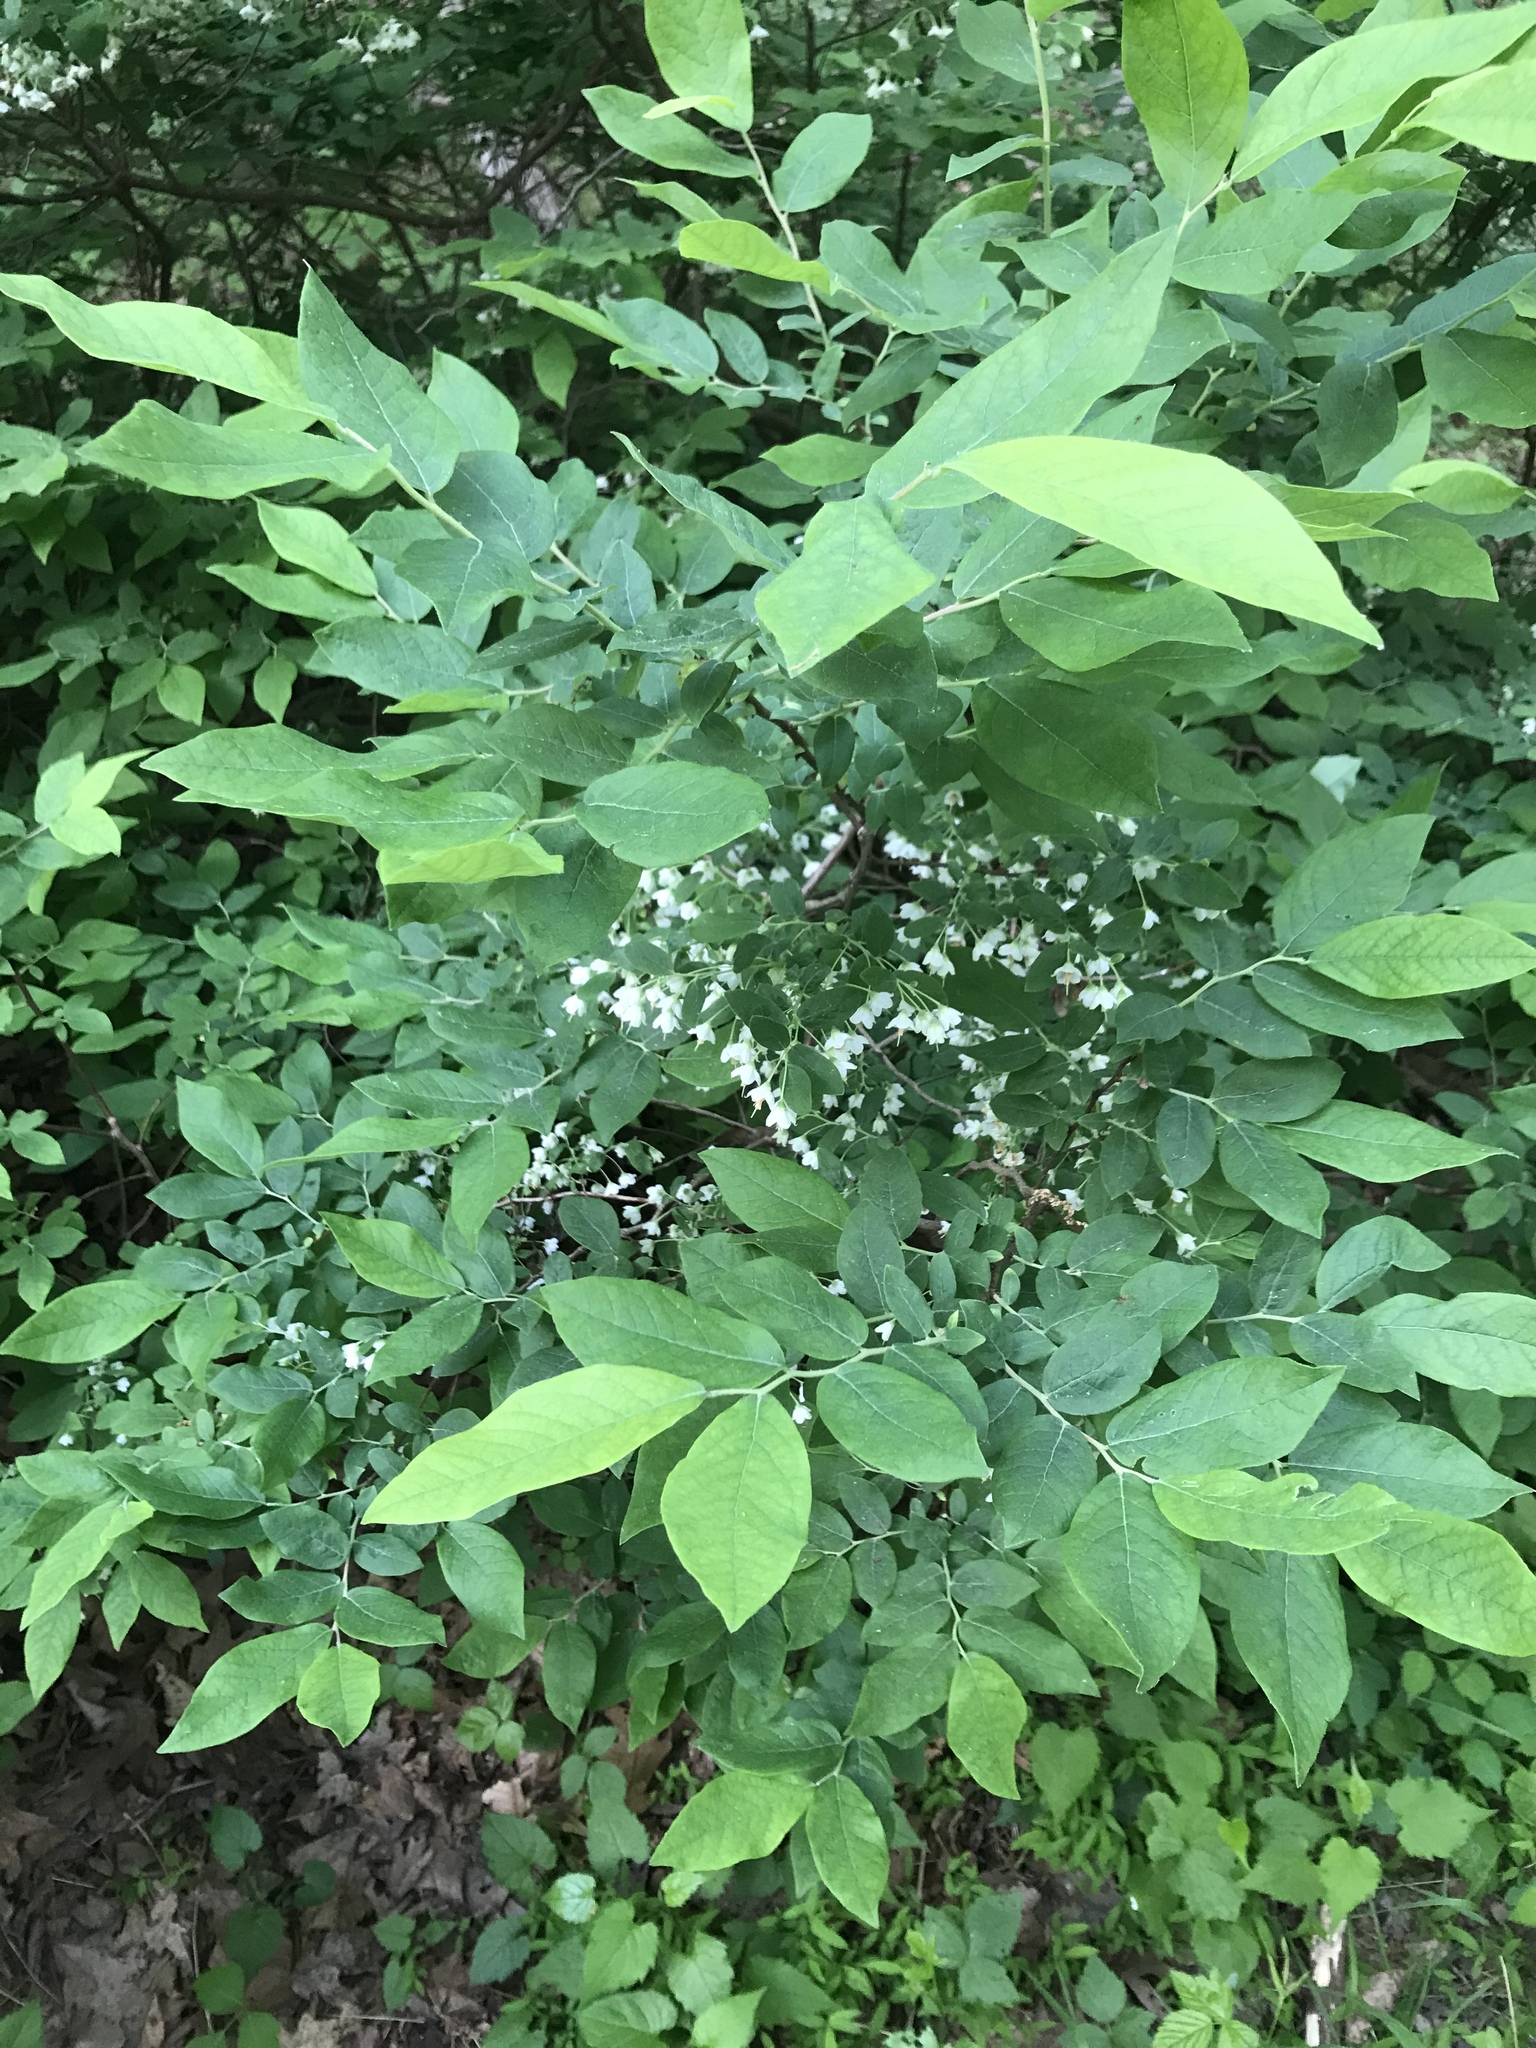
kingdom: Plantae
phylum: Tracheophyta
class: Magnoliopsida
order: Ericales
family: Ericaceae
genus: Vaccinium
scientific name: Vaccinium stamineum
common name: Deerberry
